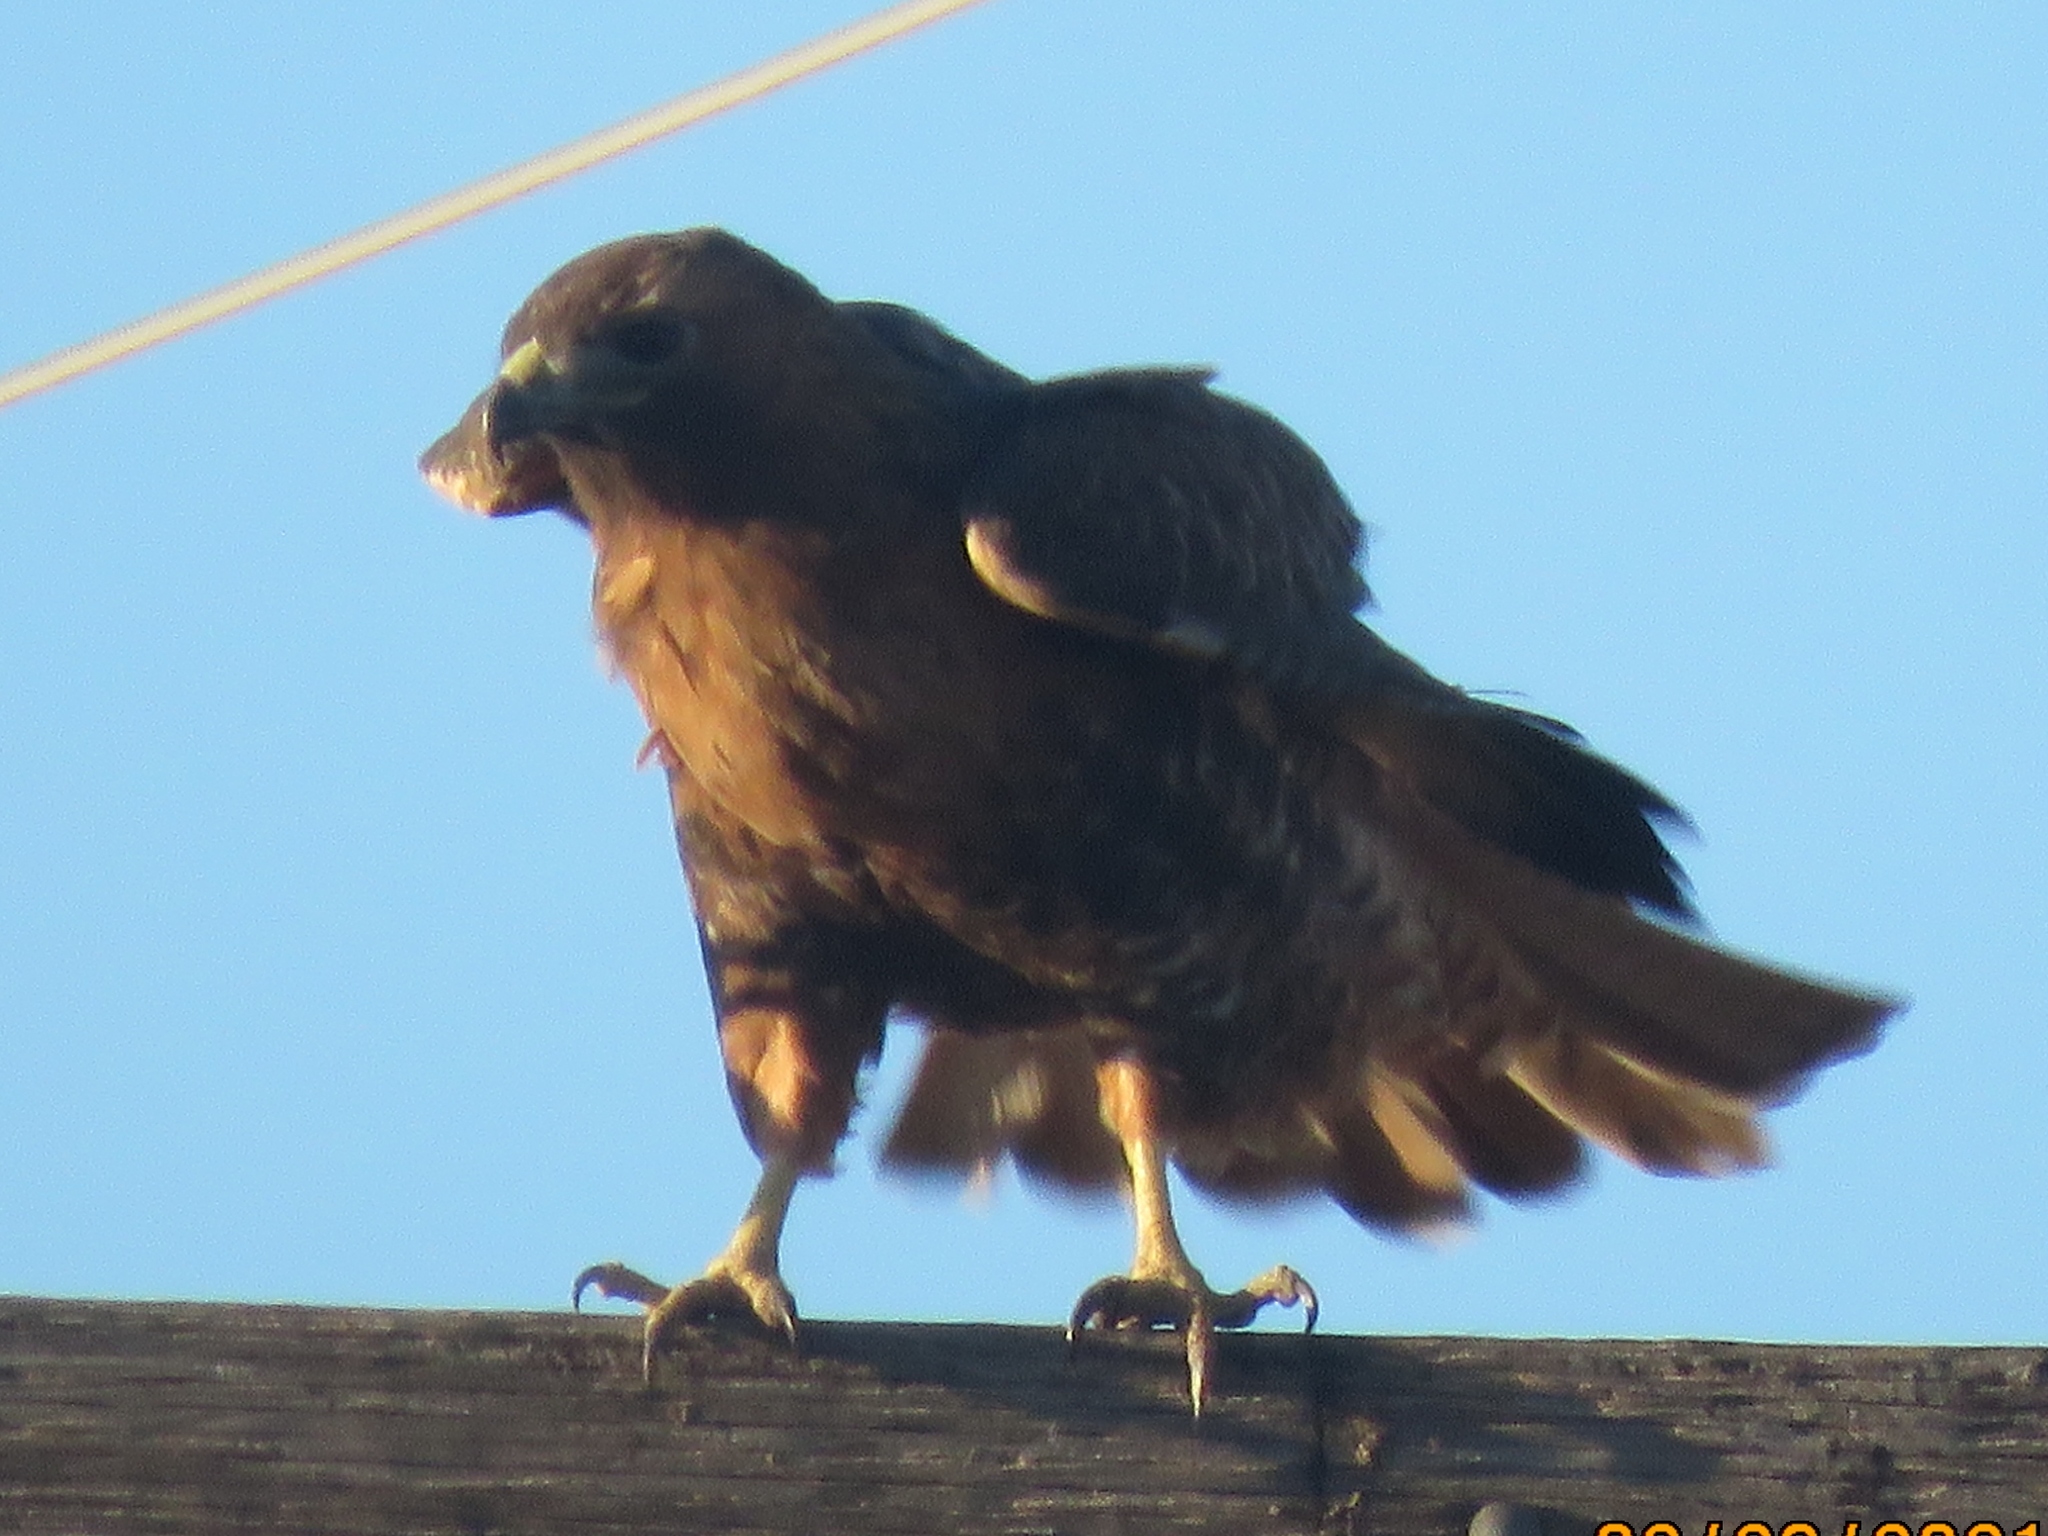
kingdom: Animalia
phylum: Chordata
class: Aves
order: Accipitriformes
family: Accipitridae
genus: Buteo
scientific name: Buteo jamaicensis
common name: Red-tailed hawk
